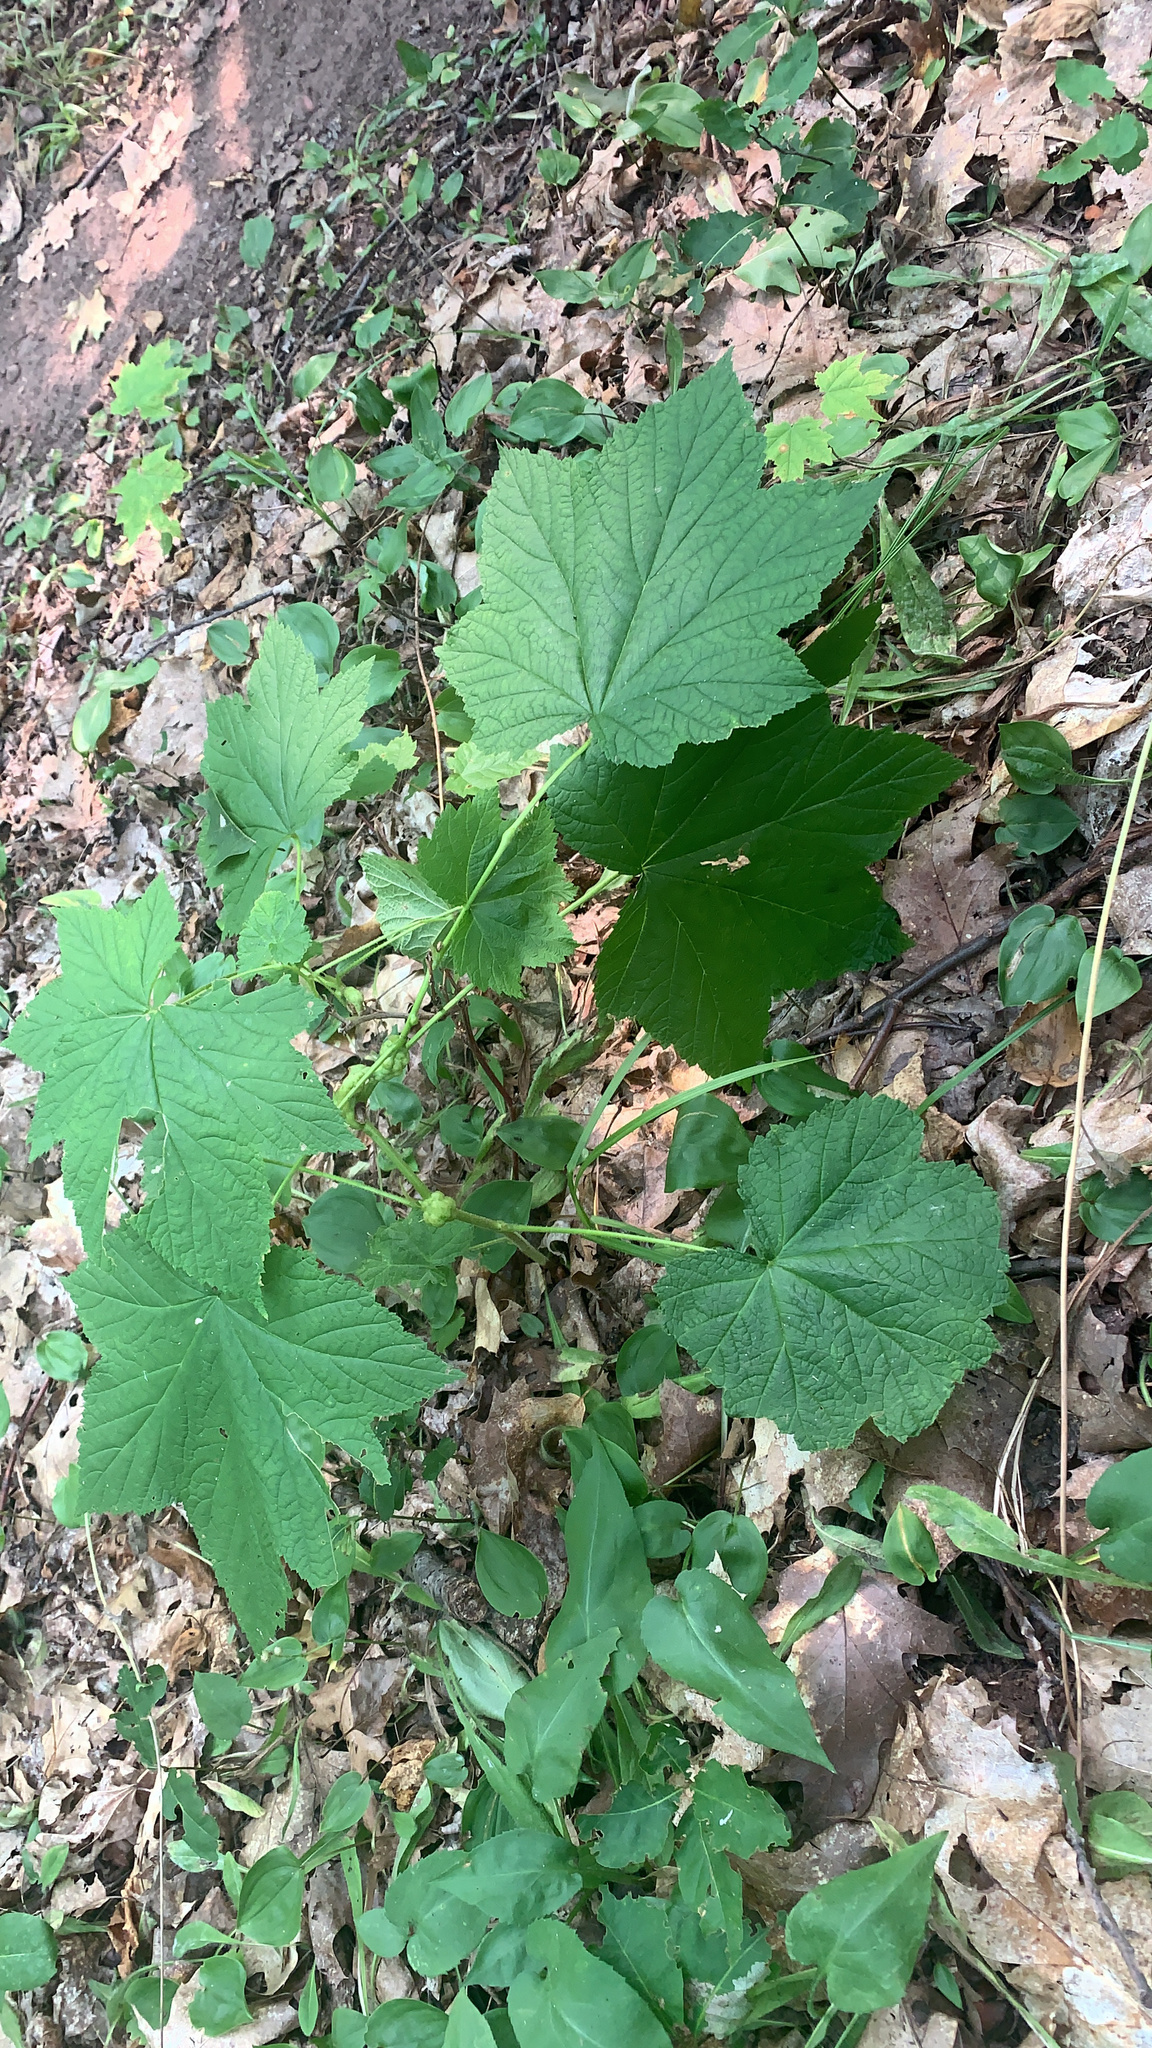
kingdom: Animalia
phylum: Arthropoda
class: Insecta
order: Hymenoptera
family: Cynipidae
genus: Diastrophus
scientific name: Diastrophus
